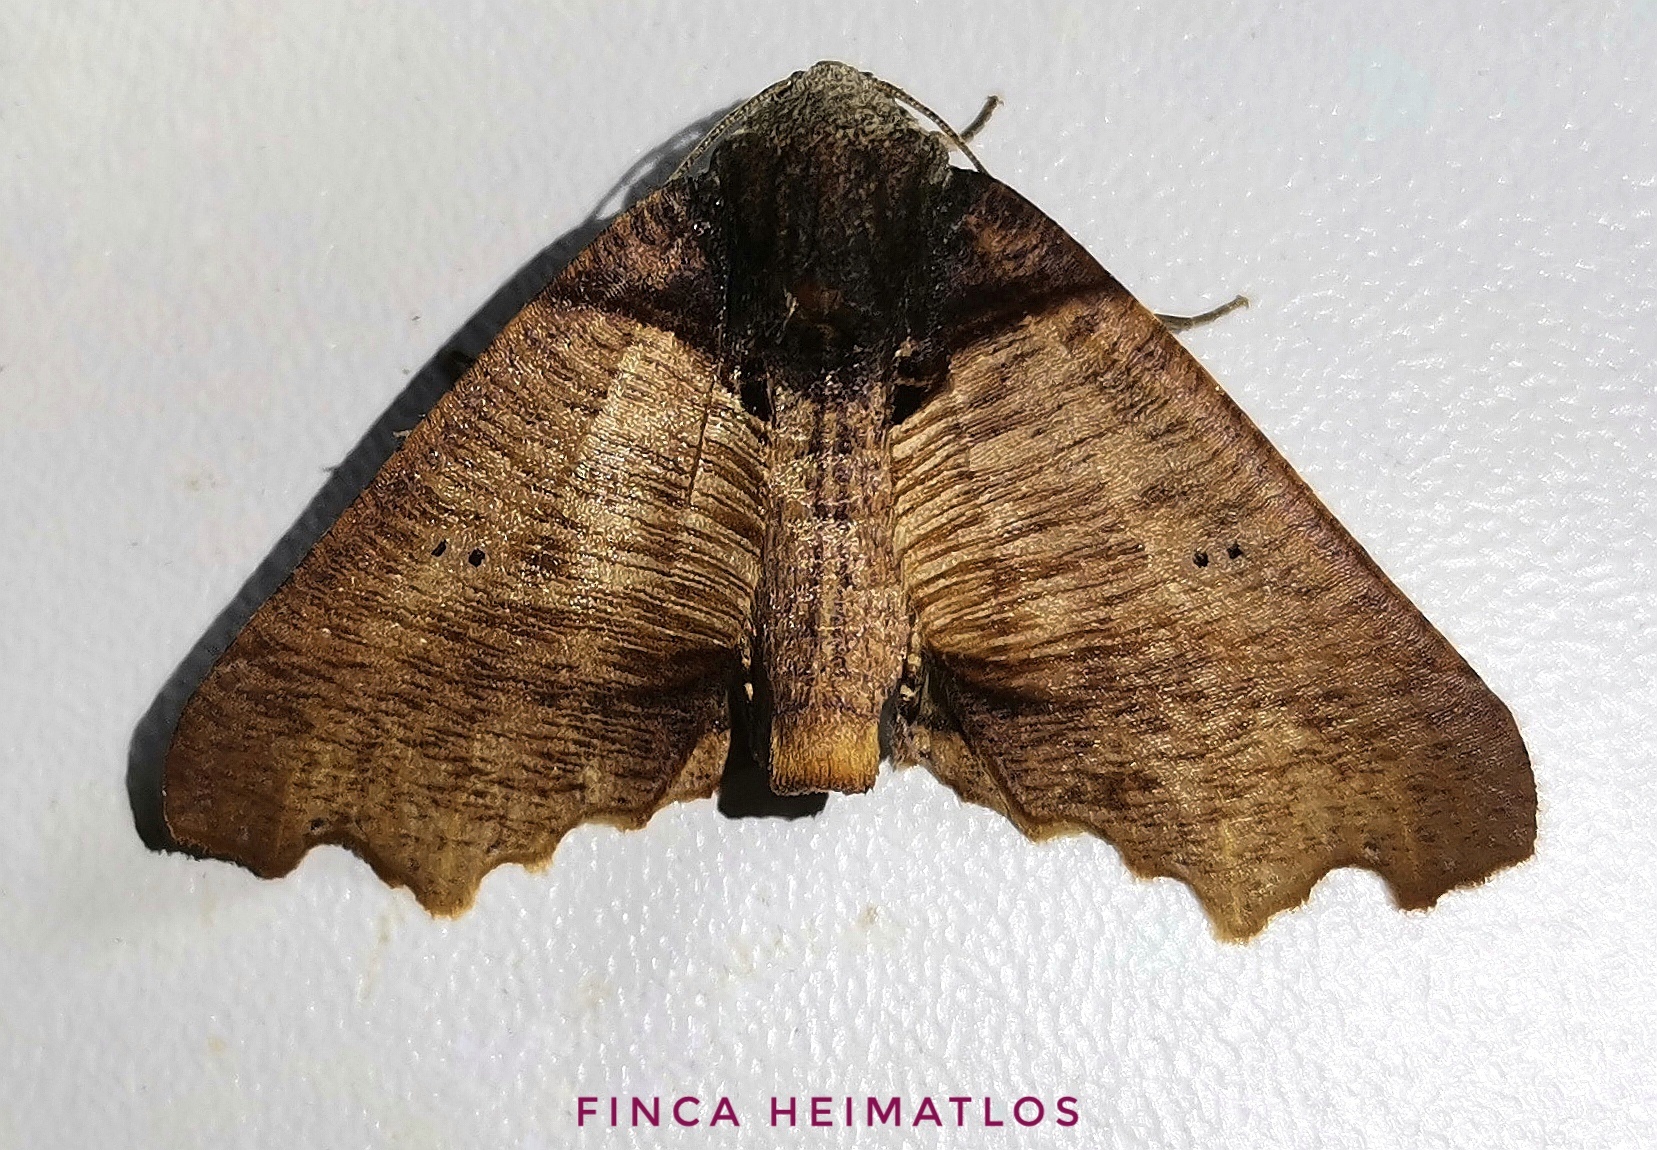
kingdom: Animalia
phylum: Arthropoda
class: Insecta
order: Lepidoptera
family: Geometridae
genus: Pero
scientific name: Pero polygonaria
